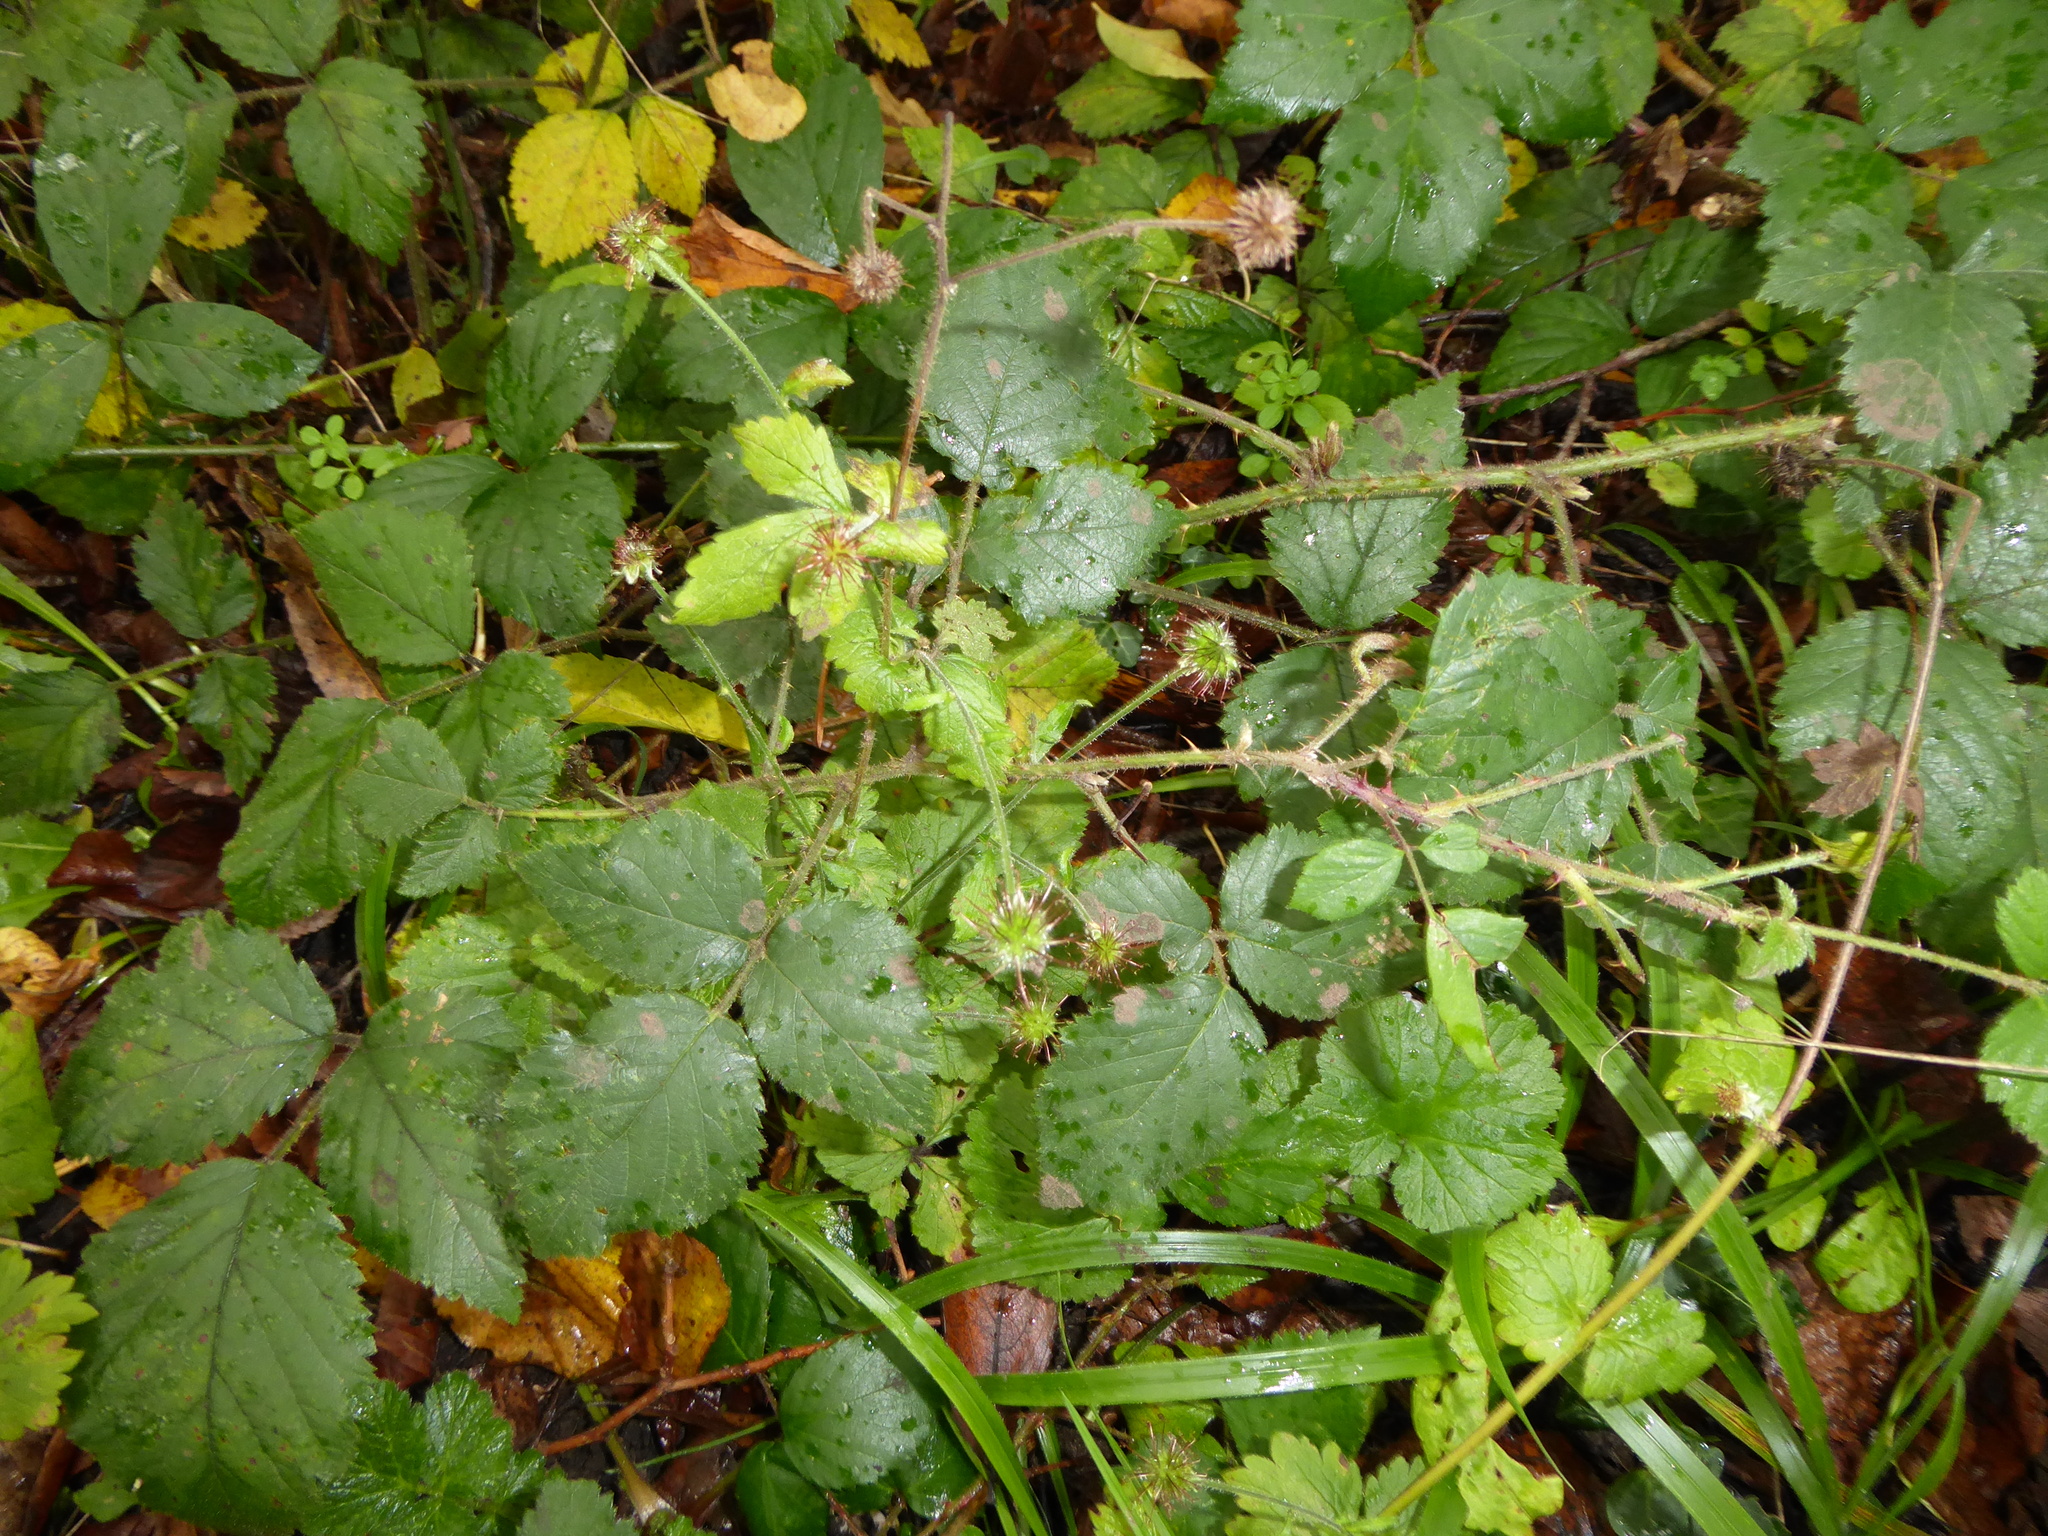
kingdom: Plantae
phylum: Tracheophyta
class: Magnoliopsida
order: Rosales
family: Rosaceae
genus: Geum
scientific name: Geum urbanum
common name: Wood avens
